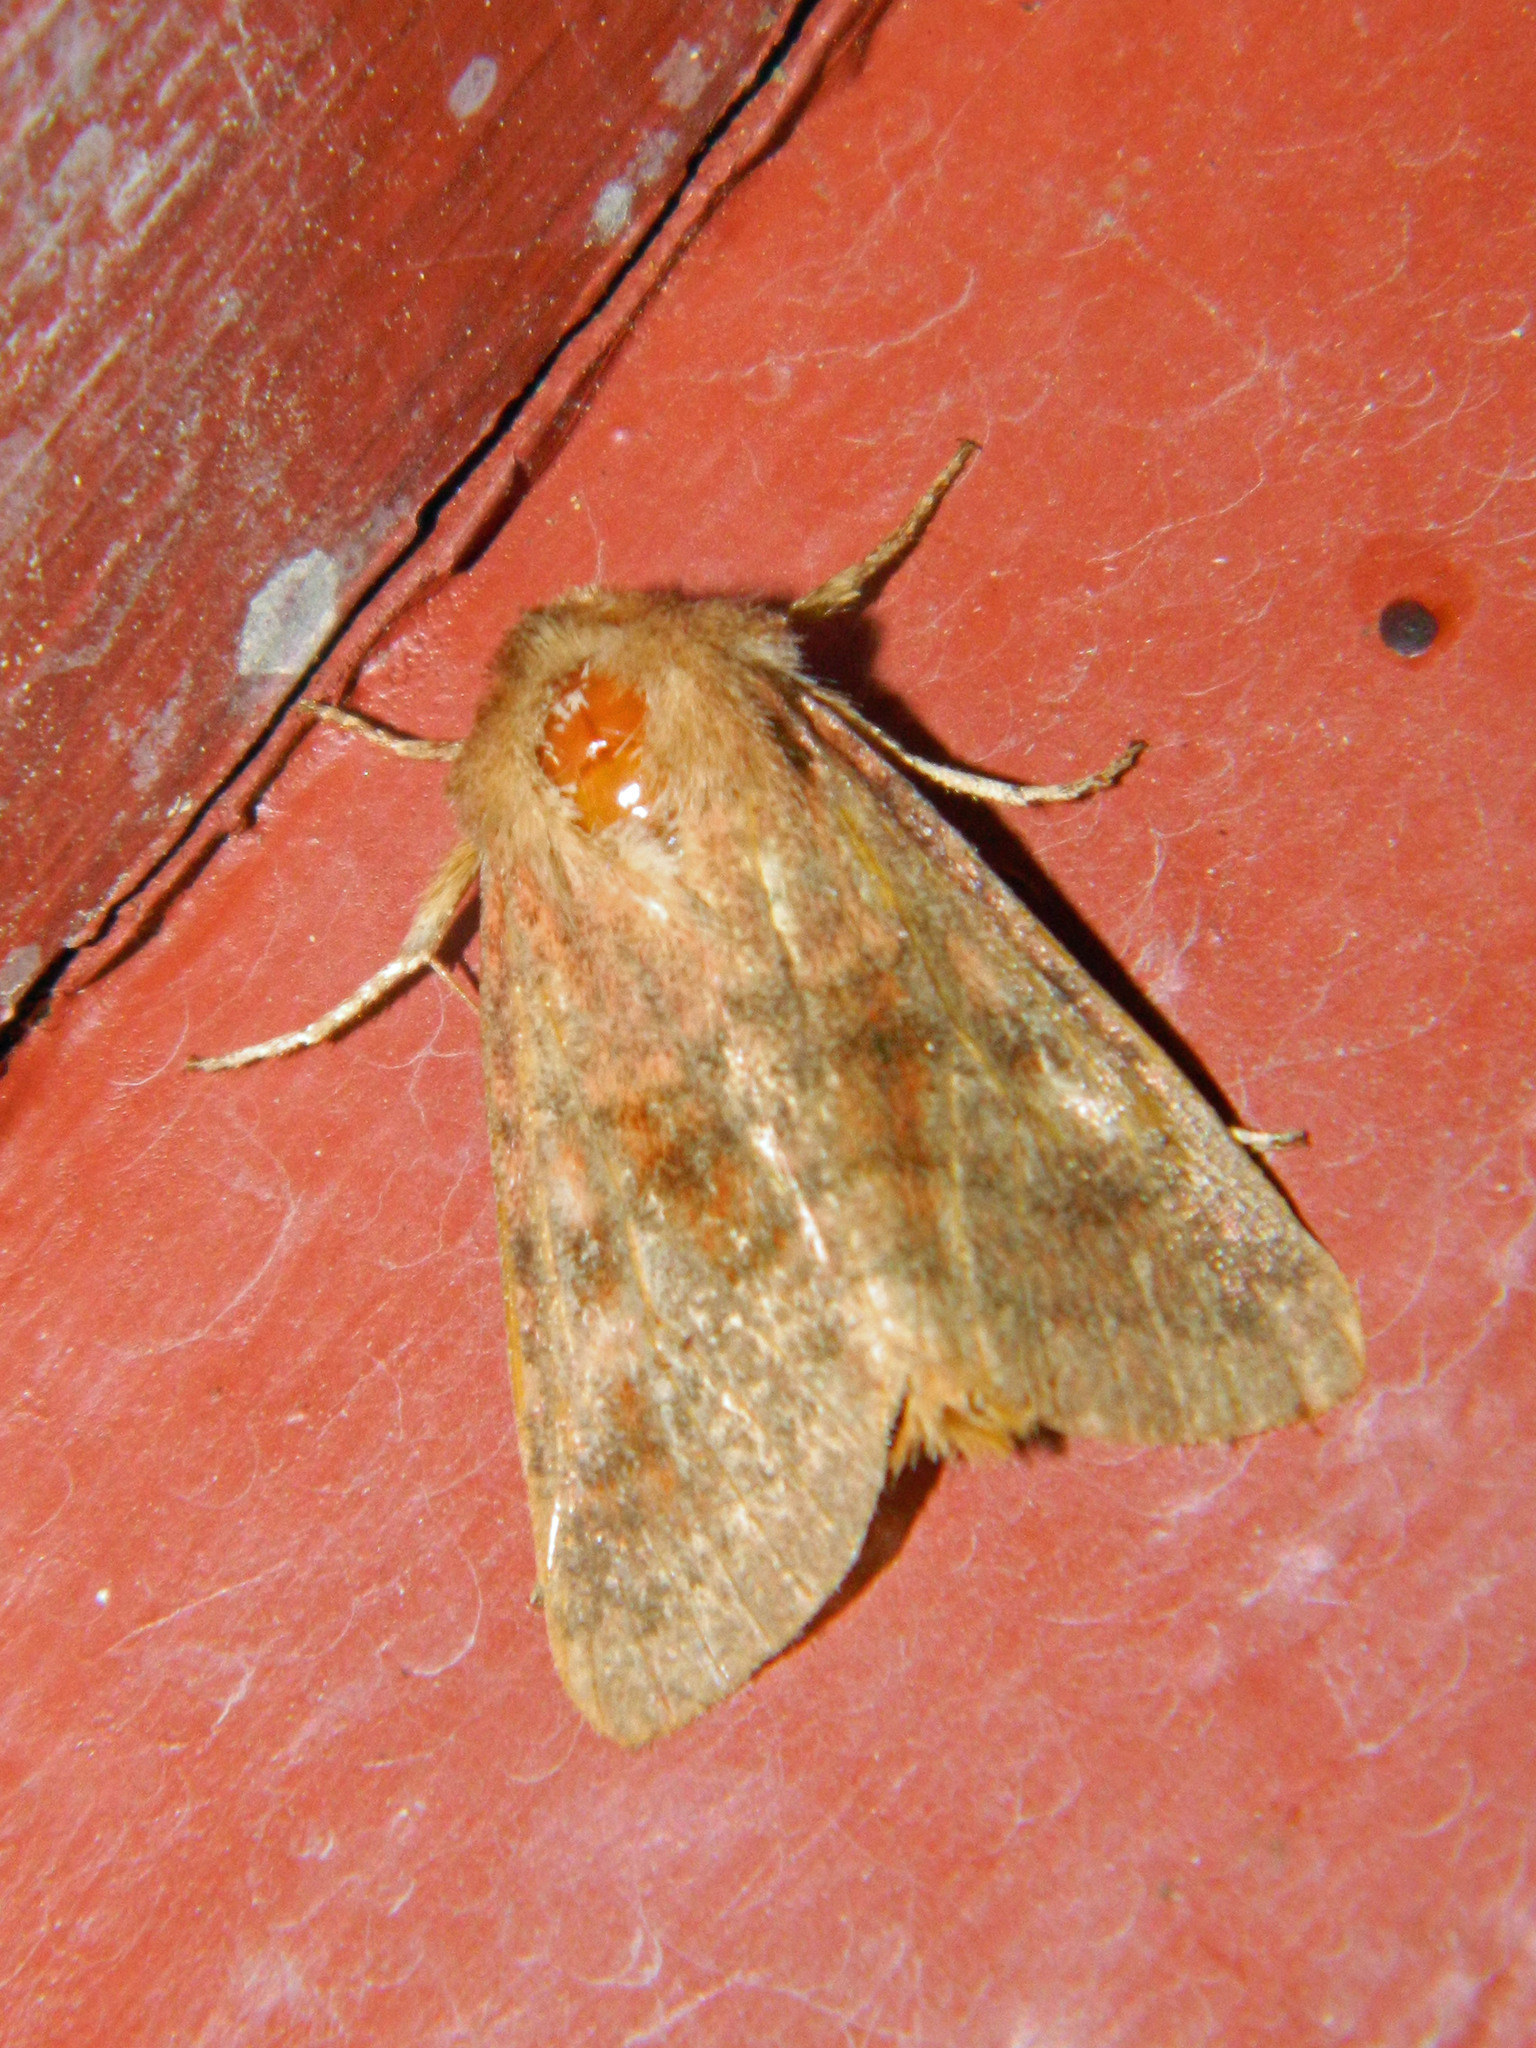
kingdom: Animalia
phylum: Arthropoda
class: Insecta
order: Lepidoptera
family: Noctuidae
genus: Nephelodes
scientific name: Nephelodes minians
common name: Bronzed cutworm
